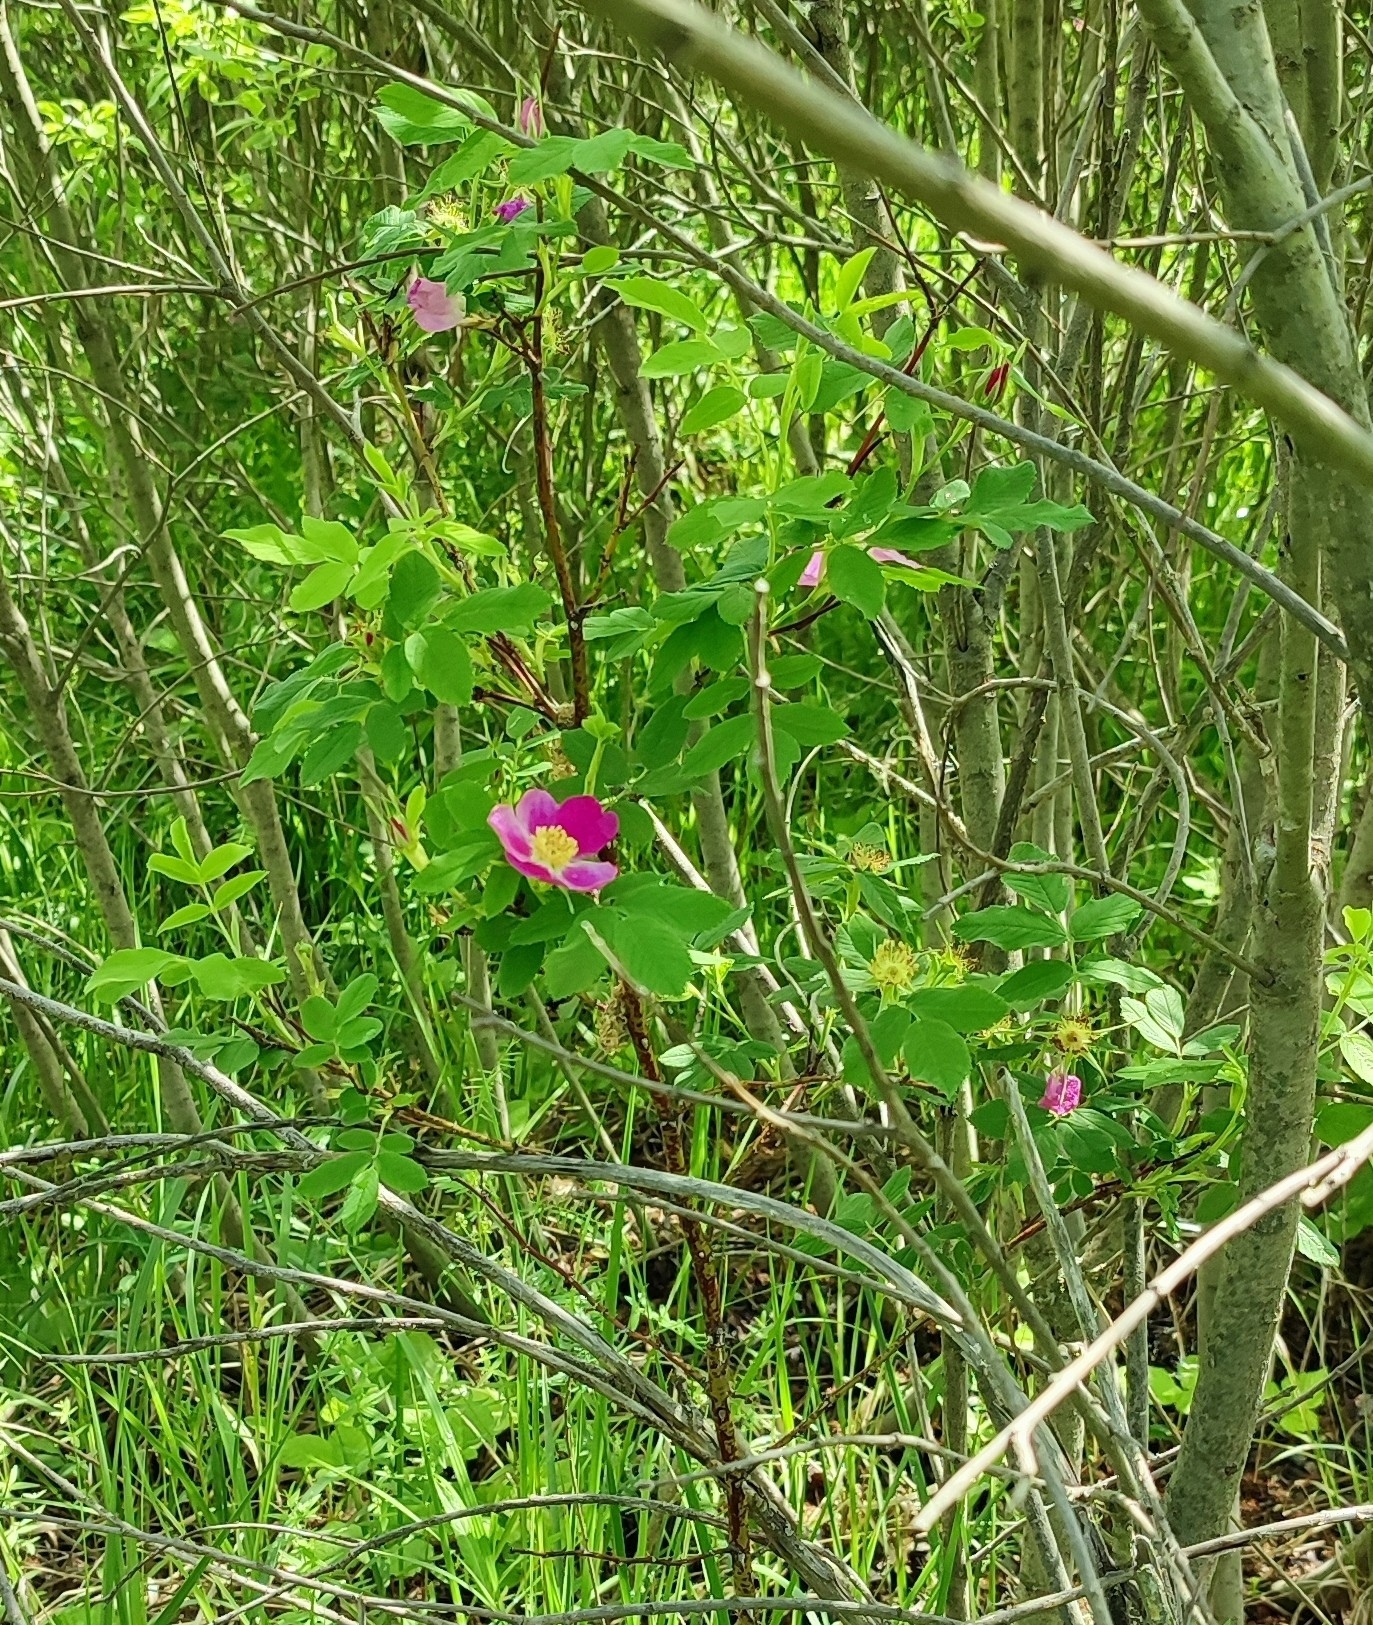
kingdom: Plantae
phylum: Tracheophyta
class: Magnoliopsida
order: Rosales
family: Rosaceae
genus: Rosa
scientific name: Rosa majalis
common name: Cinnamon rose
